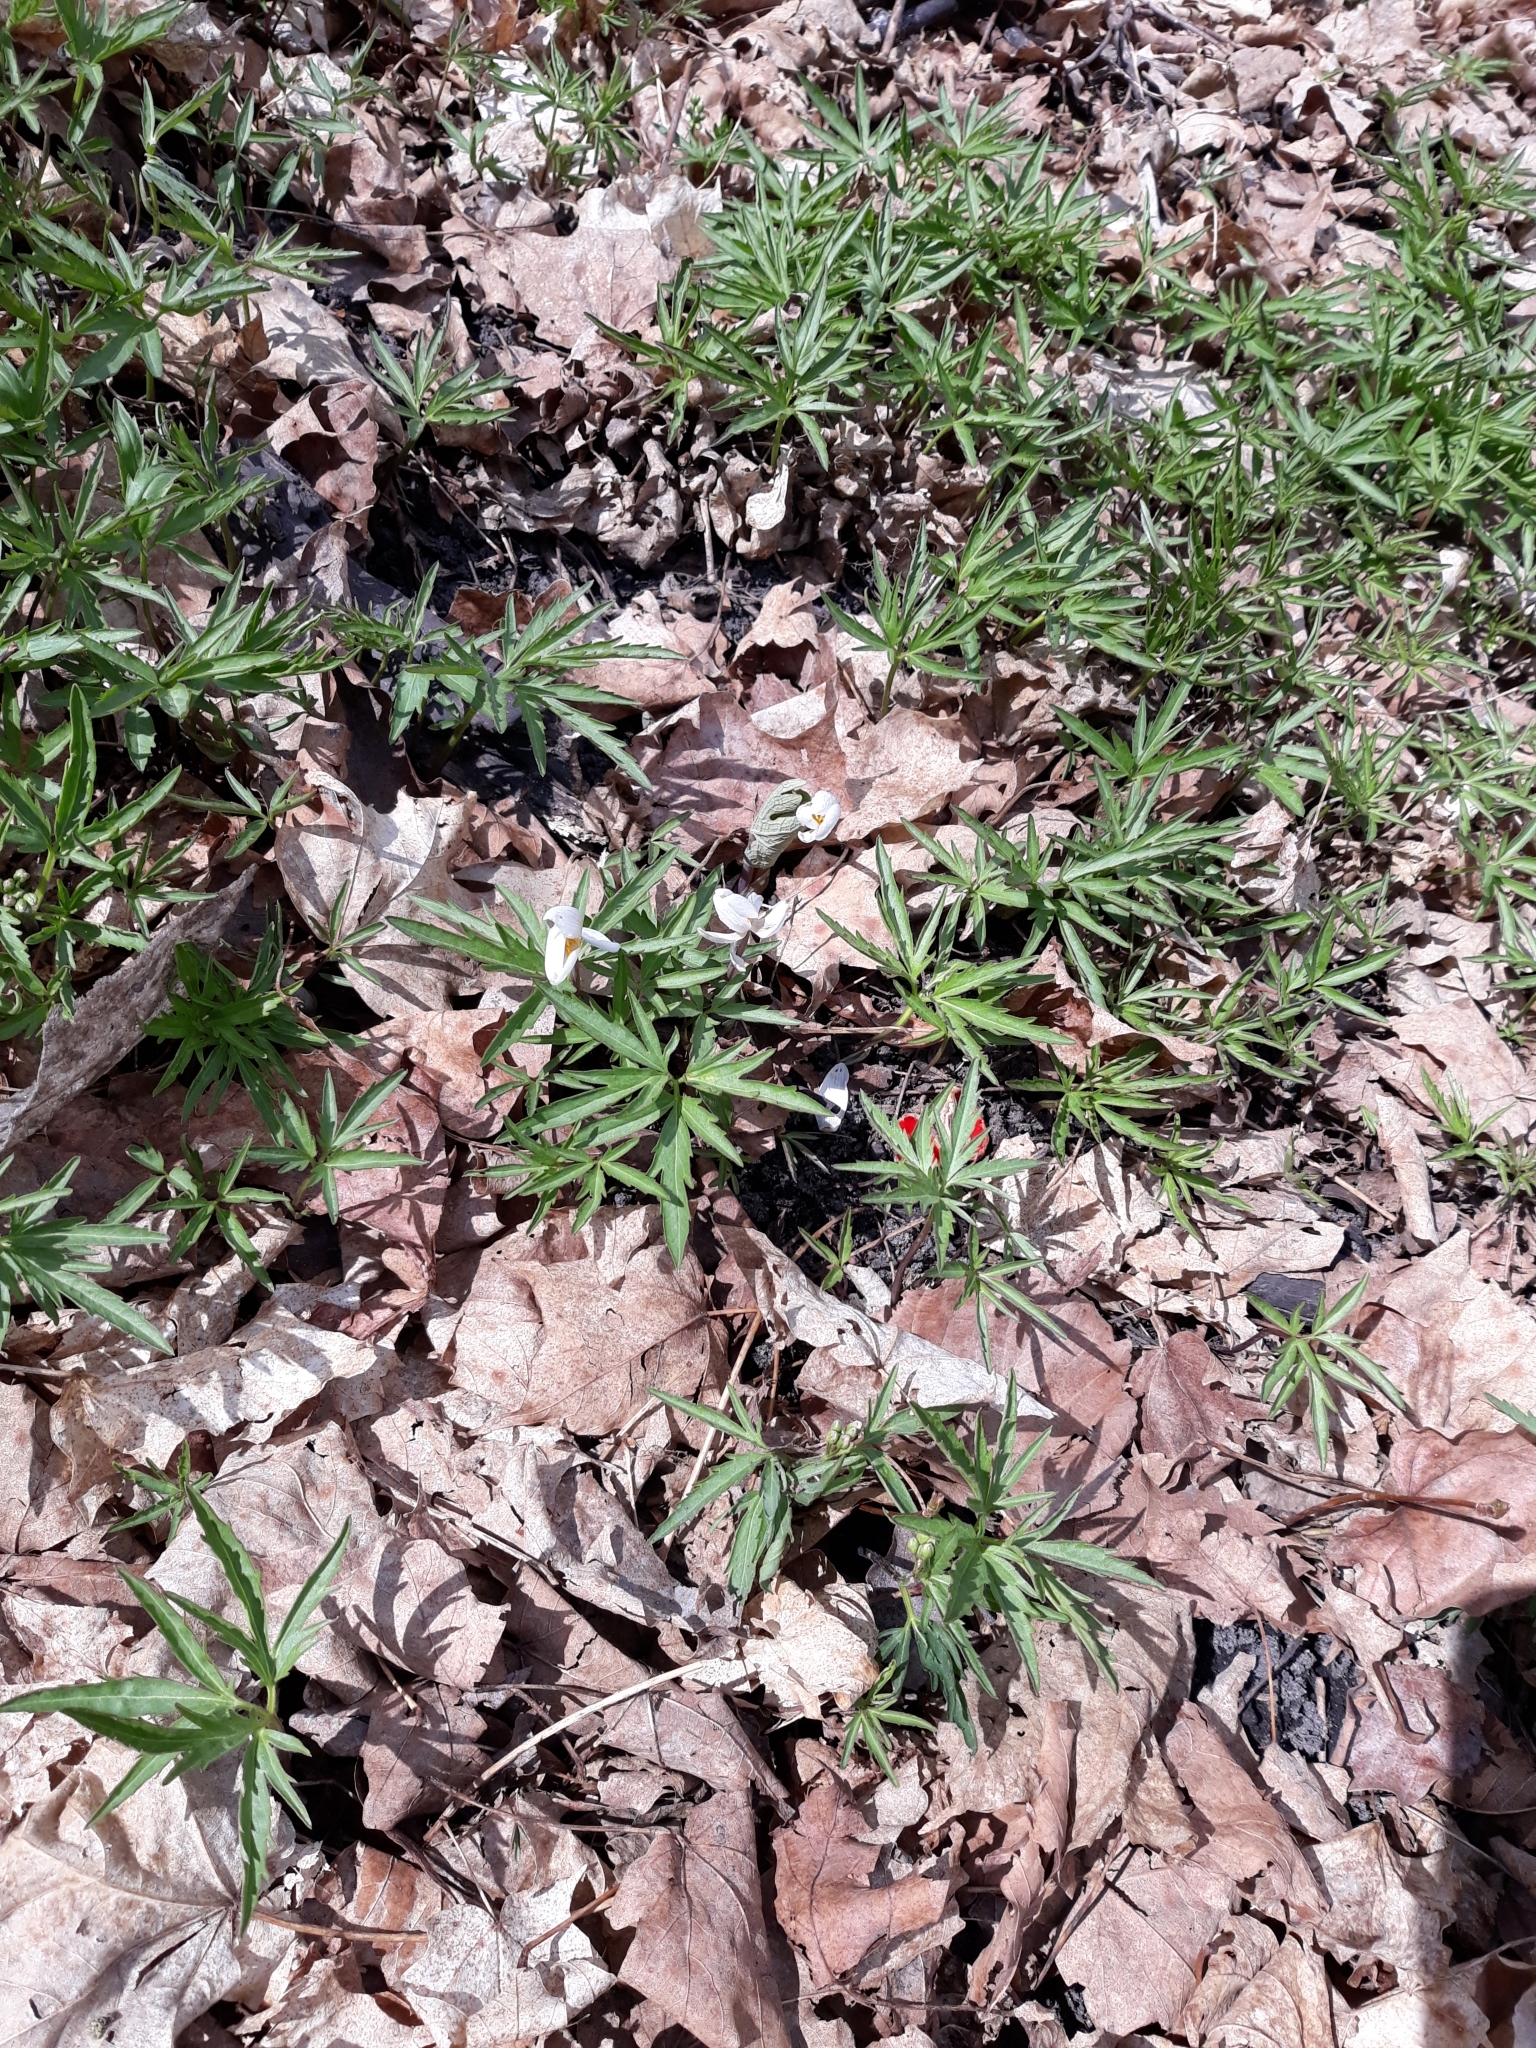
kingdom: Plantae
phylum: Tracheophyta
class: Magnoliopsida
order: Brassicales
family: Brassicaceae
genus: Cardamine
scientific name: Cardamine concatenata
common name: Cut-leaf toothcup
